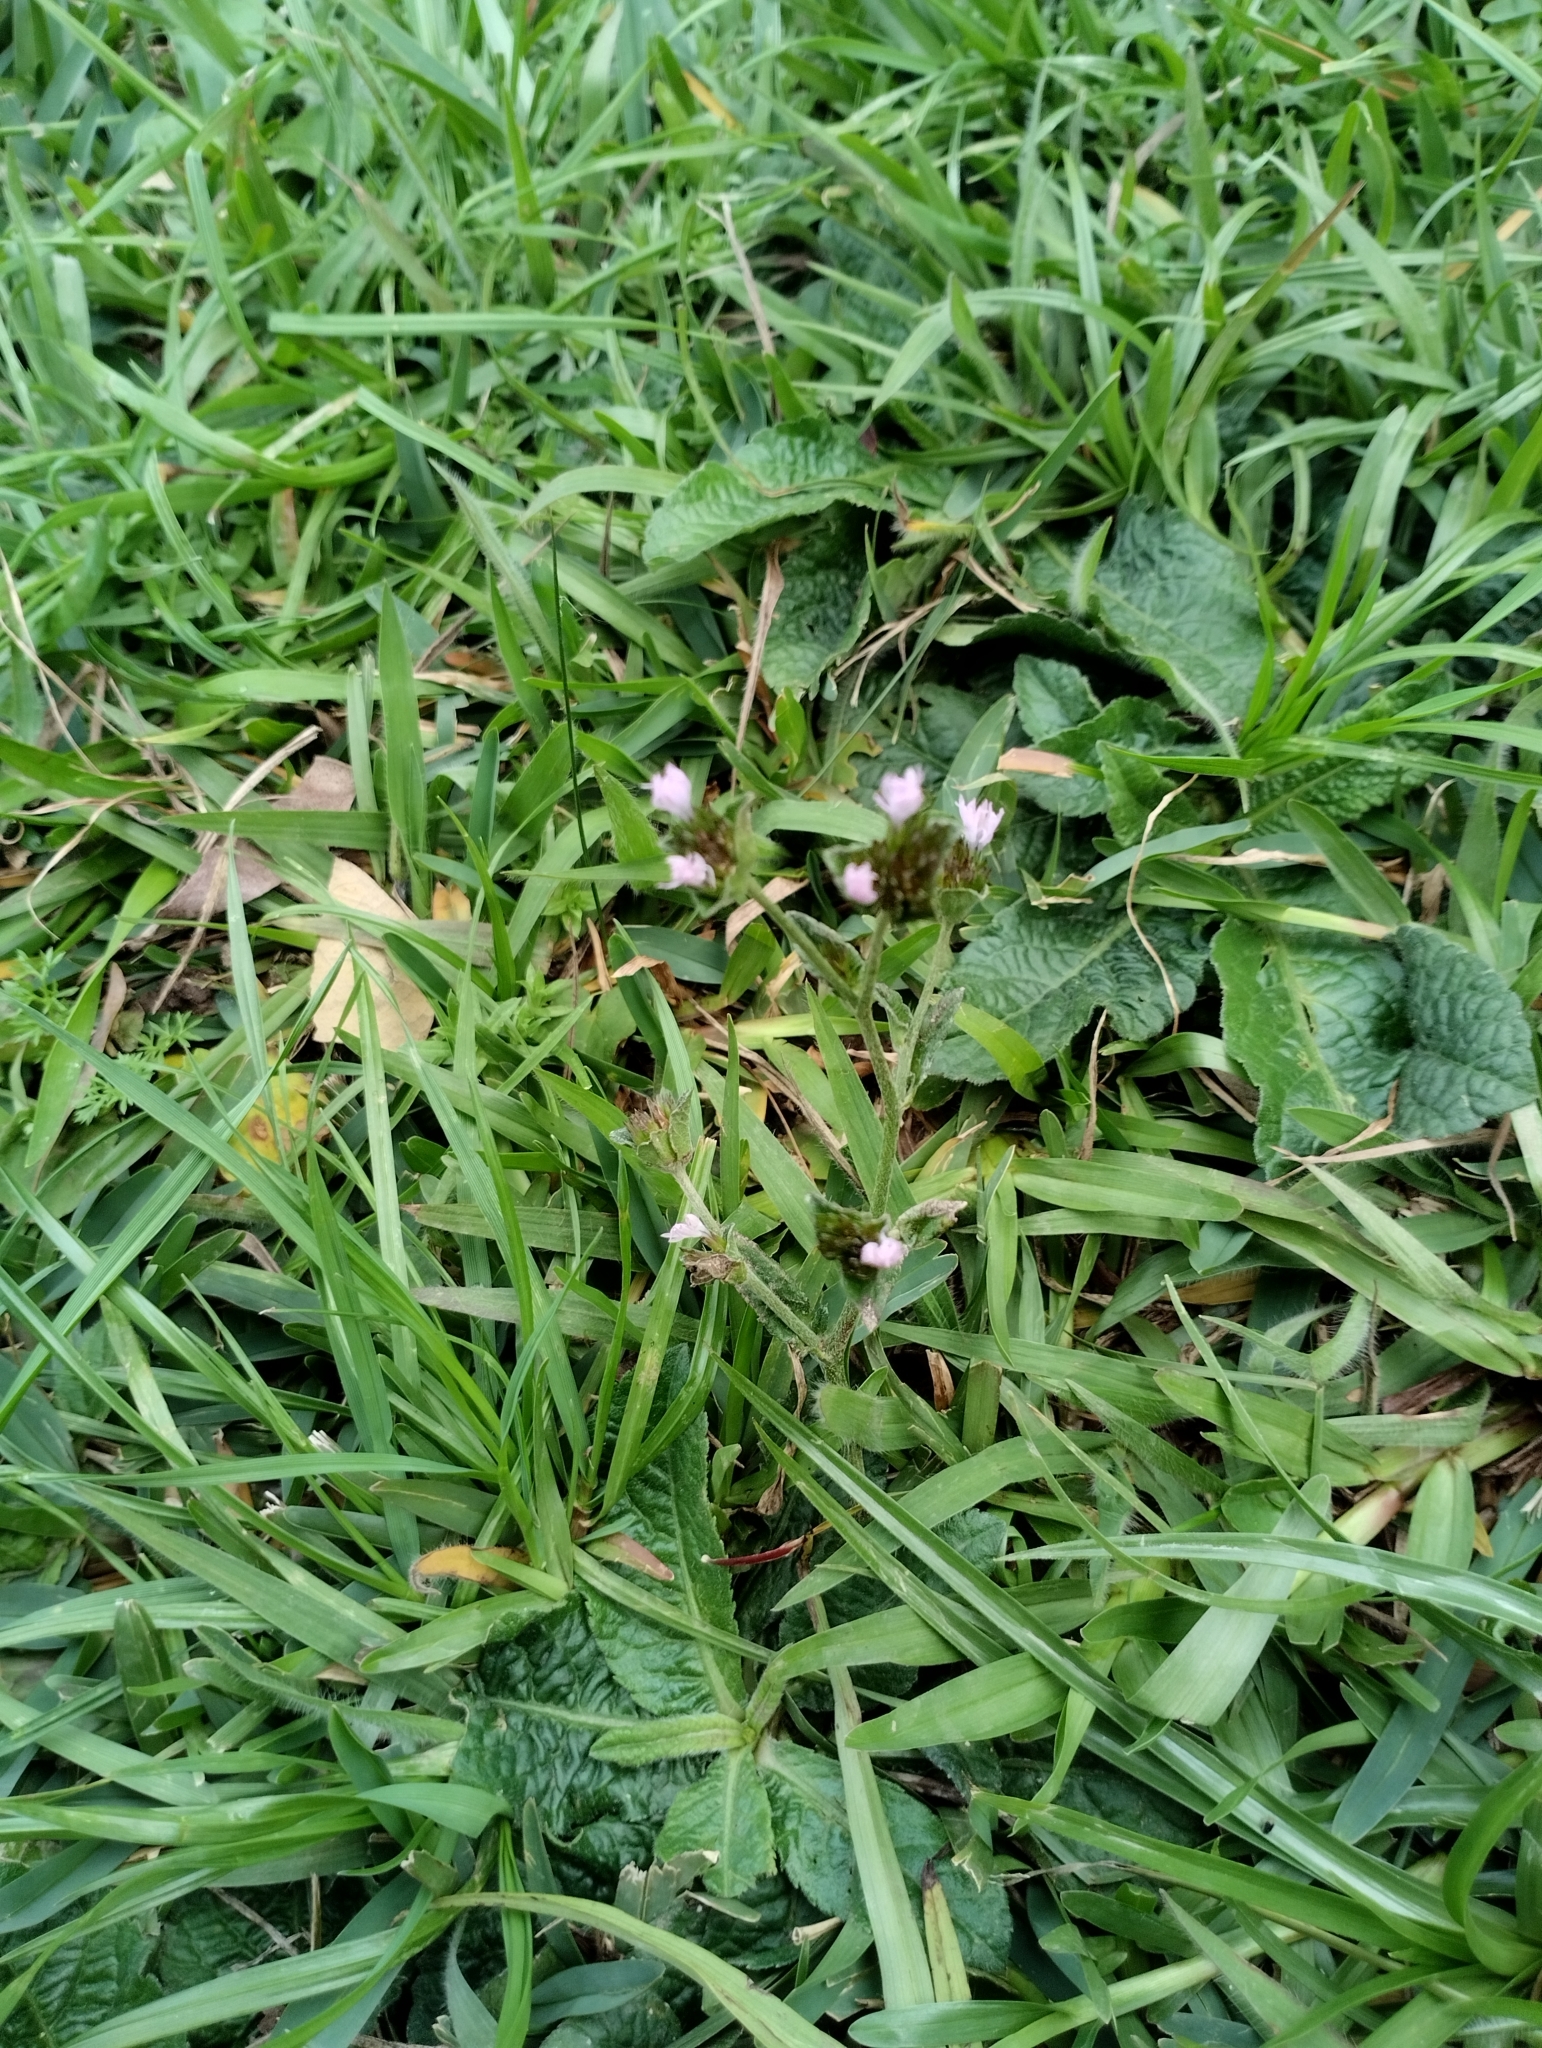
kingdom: Plantae
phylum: Tracheophyta
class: Magnoliopsida
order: Asterales
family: Asteraceae
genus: Elephantopus
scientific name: Elephantopus mollis
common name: Soft elephantsfoot
